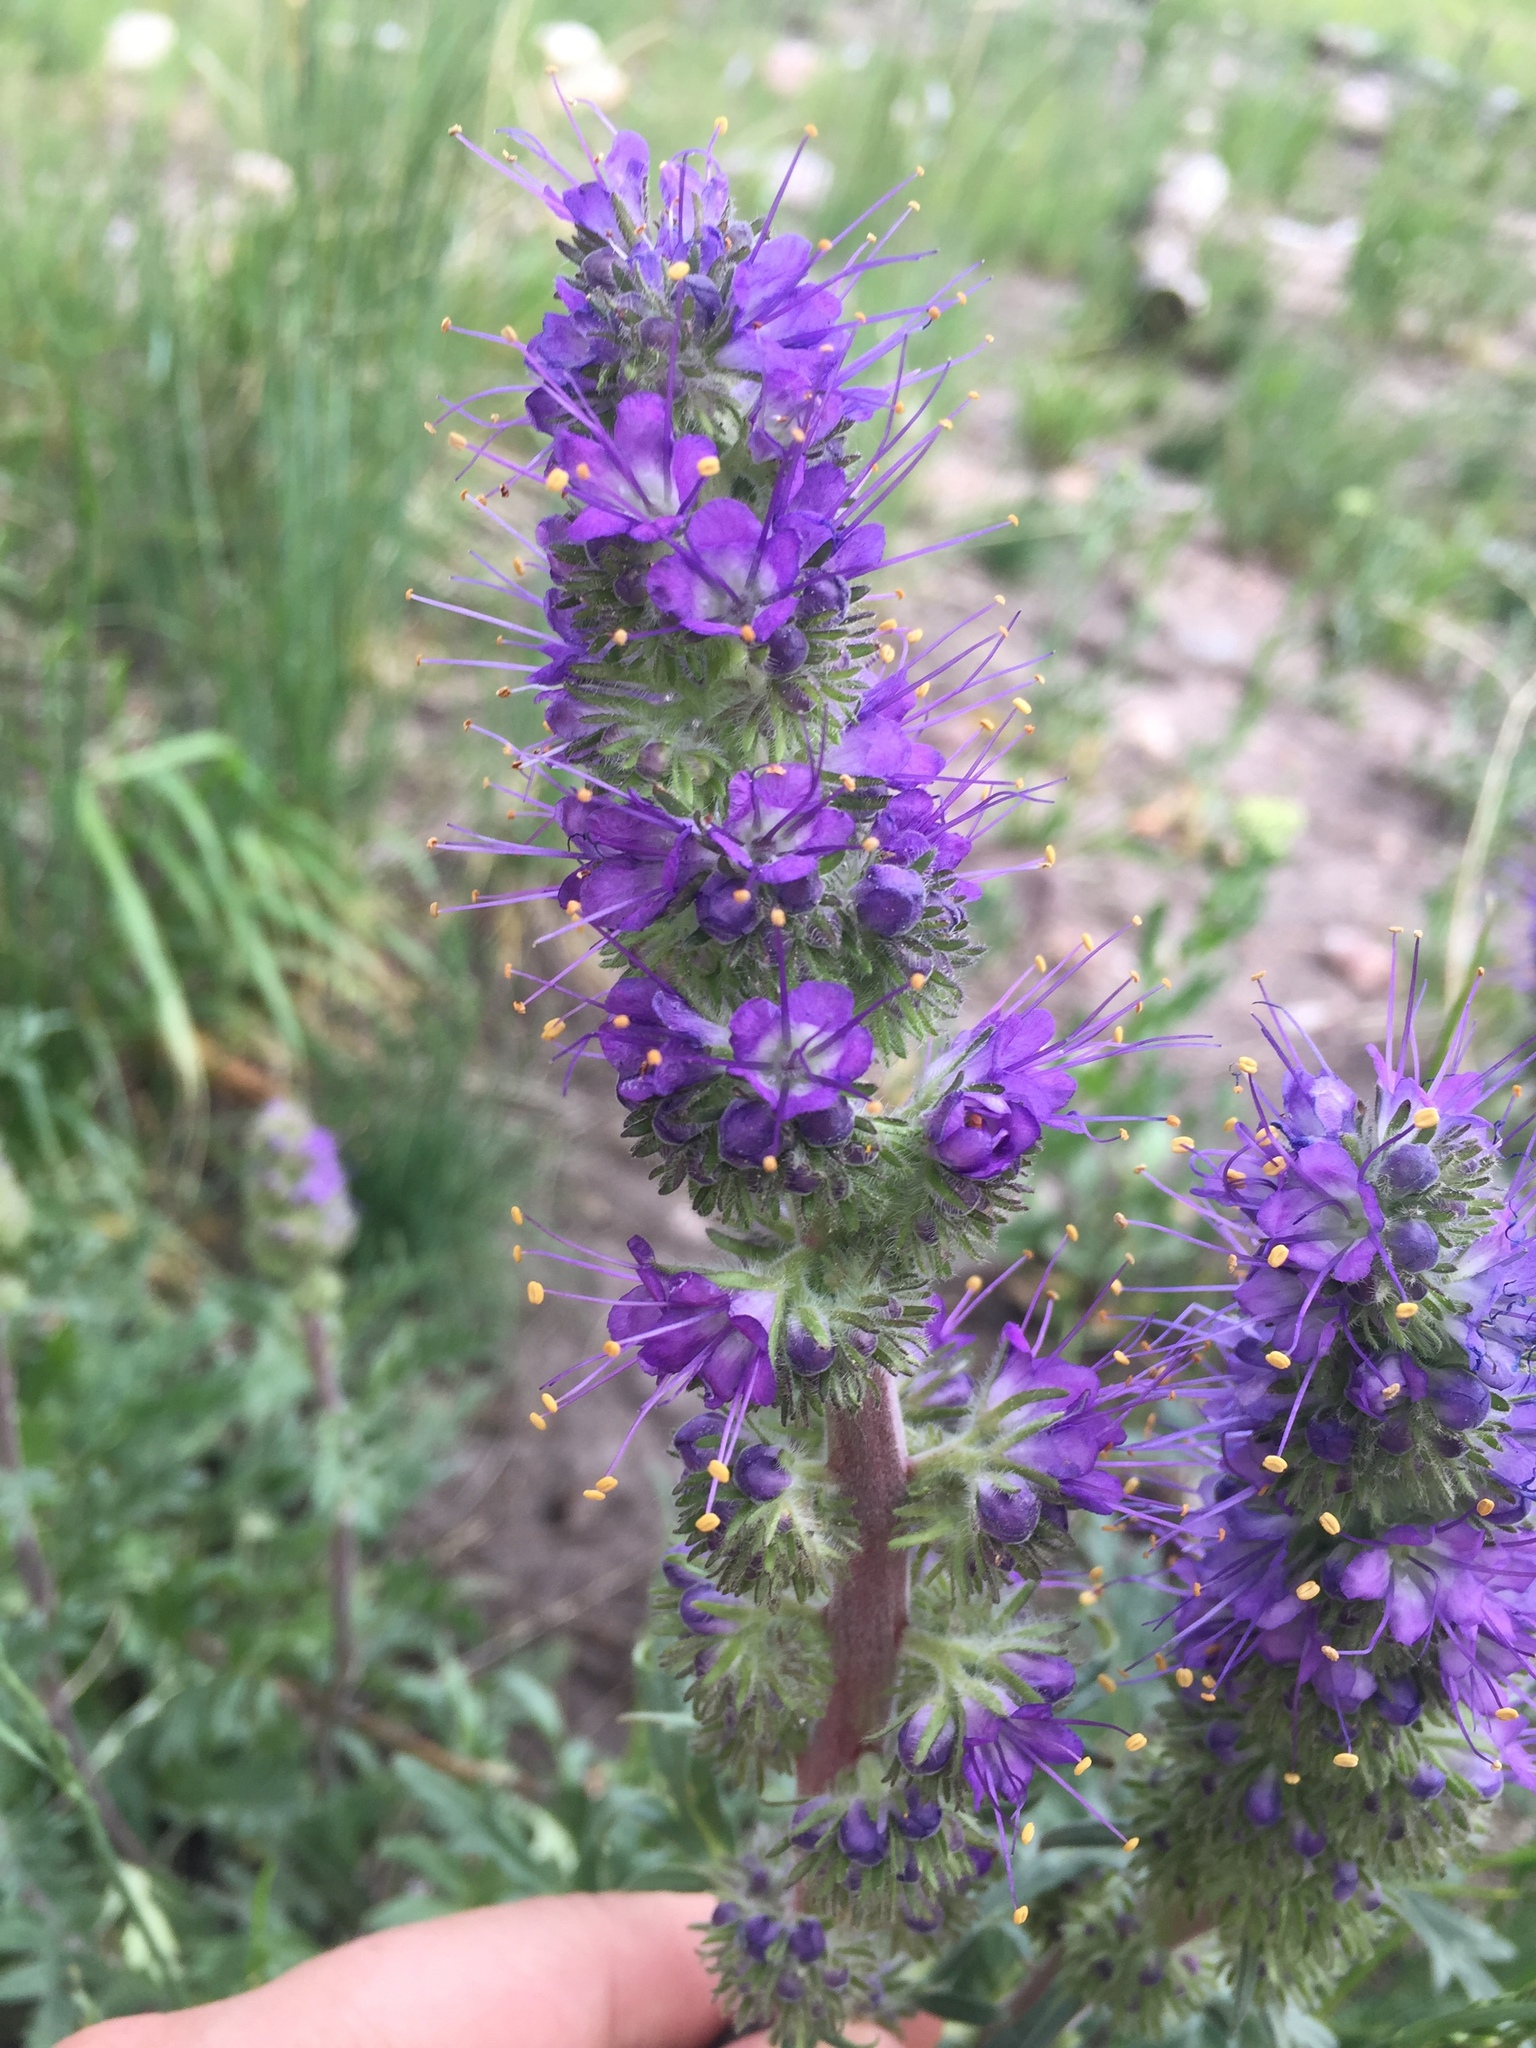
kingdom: Plantae
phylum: Tracheophyta
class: Magnoliopsida
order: Boraginales
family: Hydrophyllaceae
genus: Phacelia
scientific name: Phacelia sericea
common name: Silky phacelia
